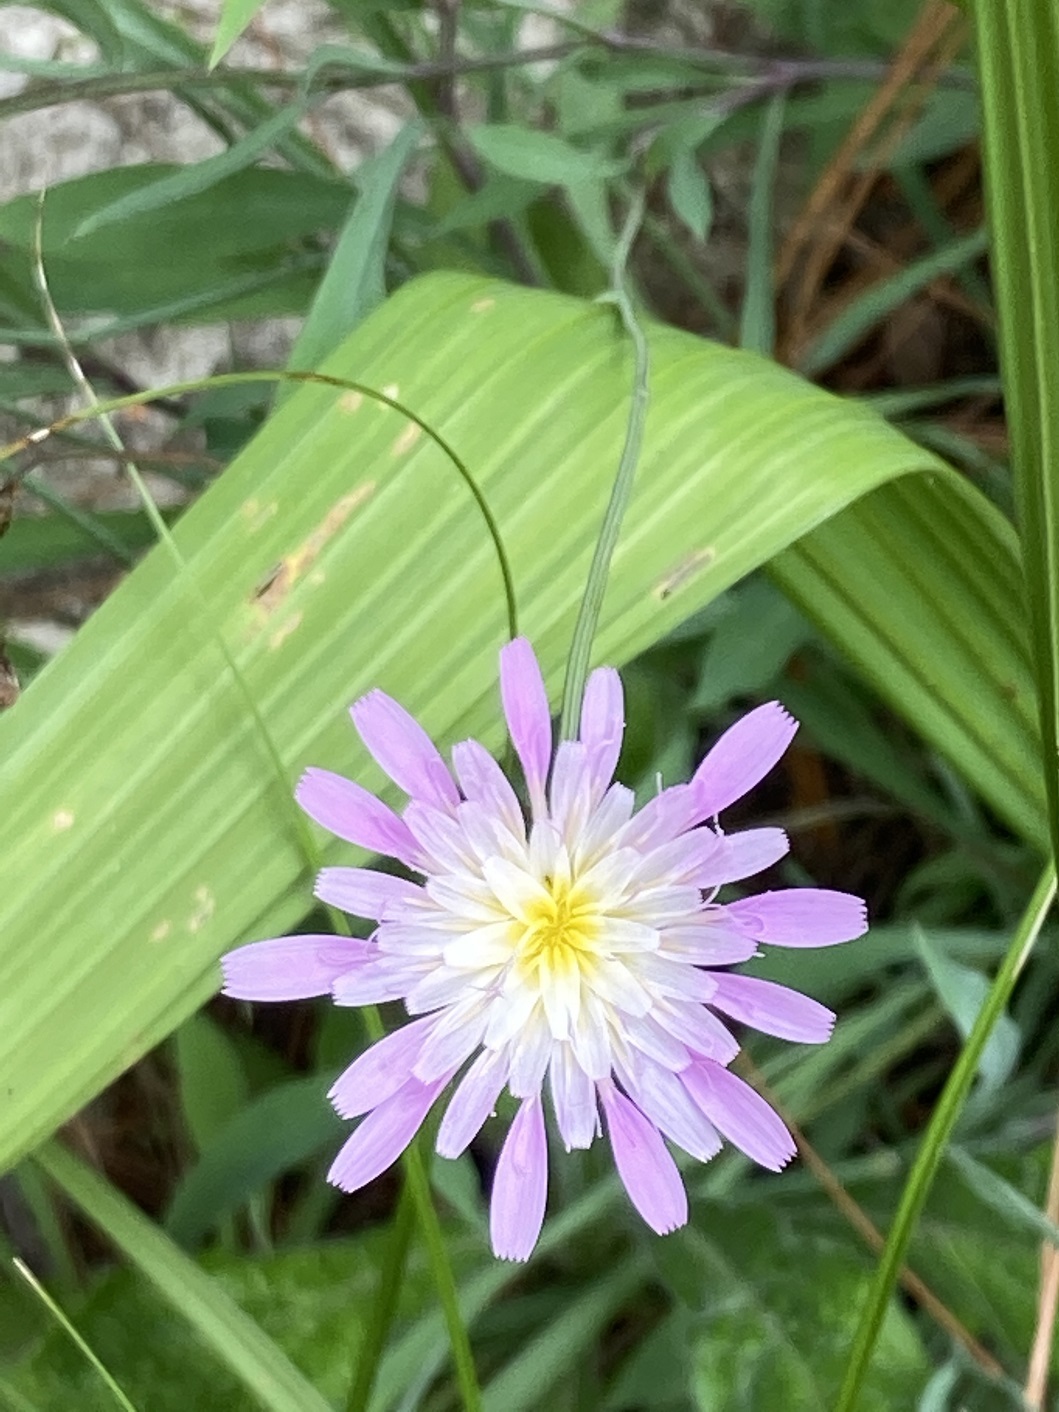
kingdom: Plantae
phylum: Tracheophyta
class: Magnoliopsida
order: Asterales
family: Asteraceae
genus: Pinaropappus
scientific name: Pinaropappus spathulatus
